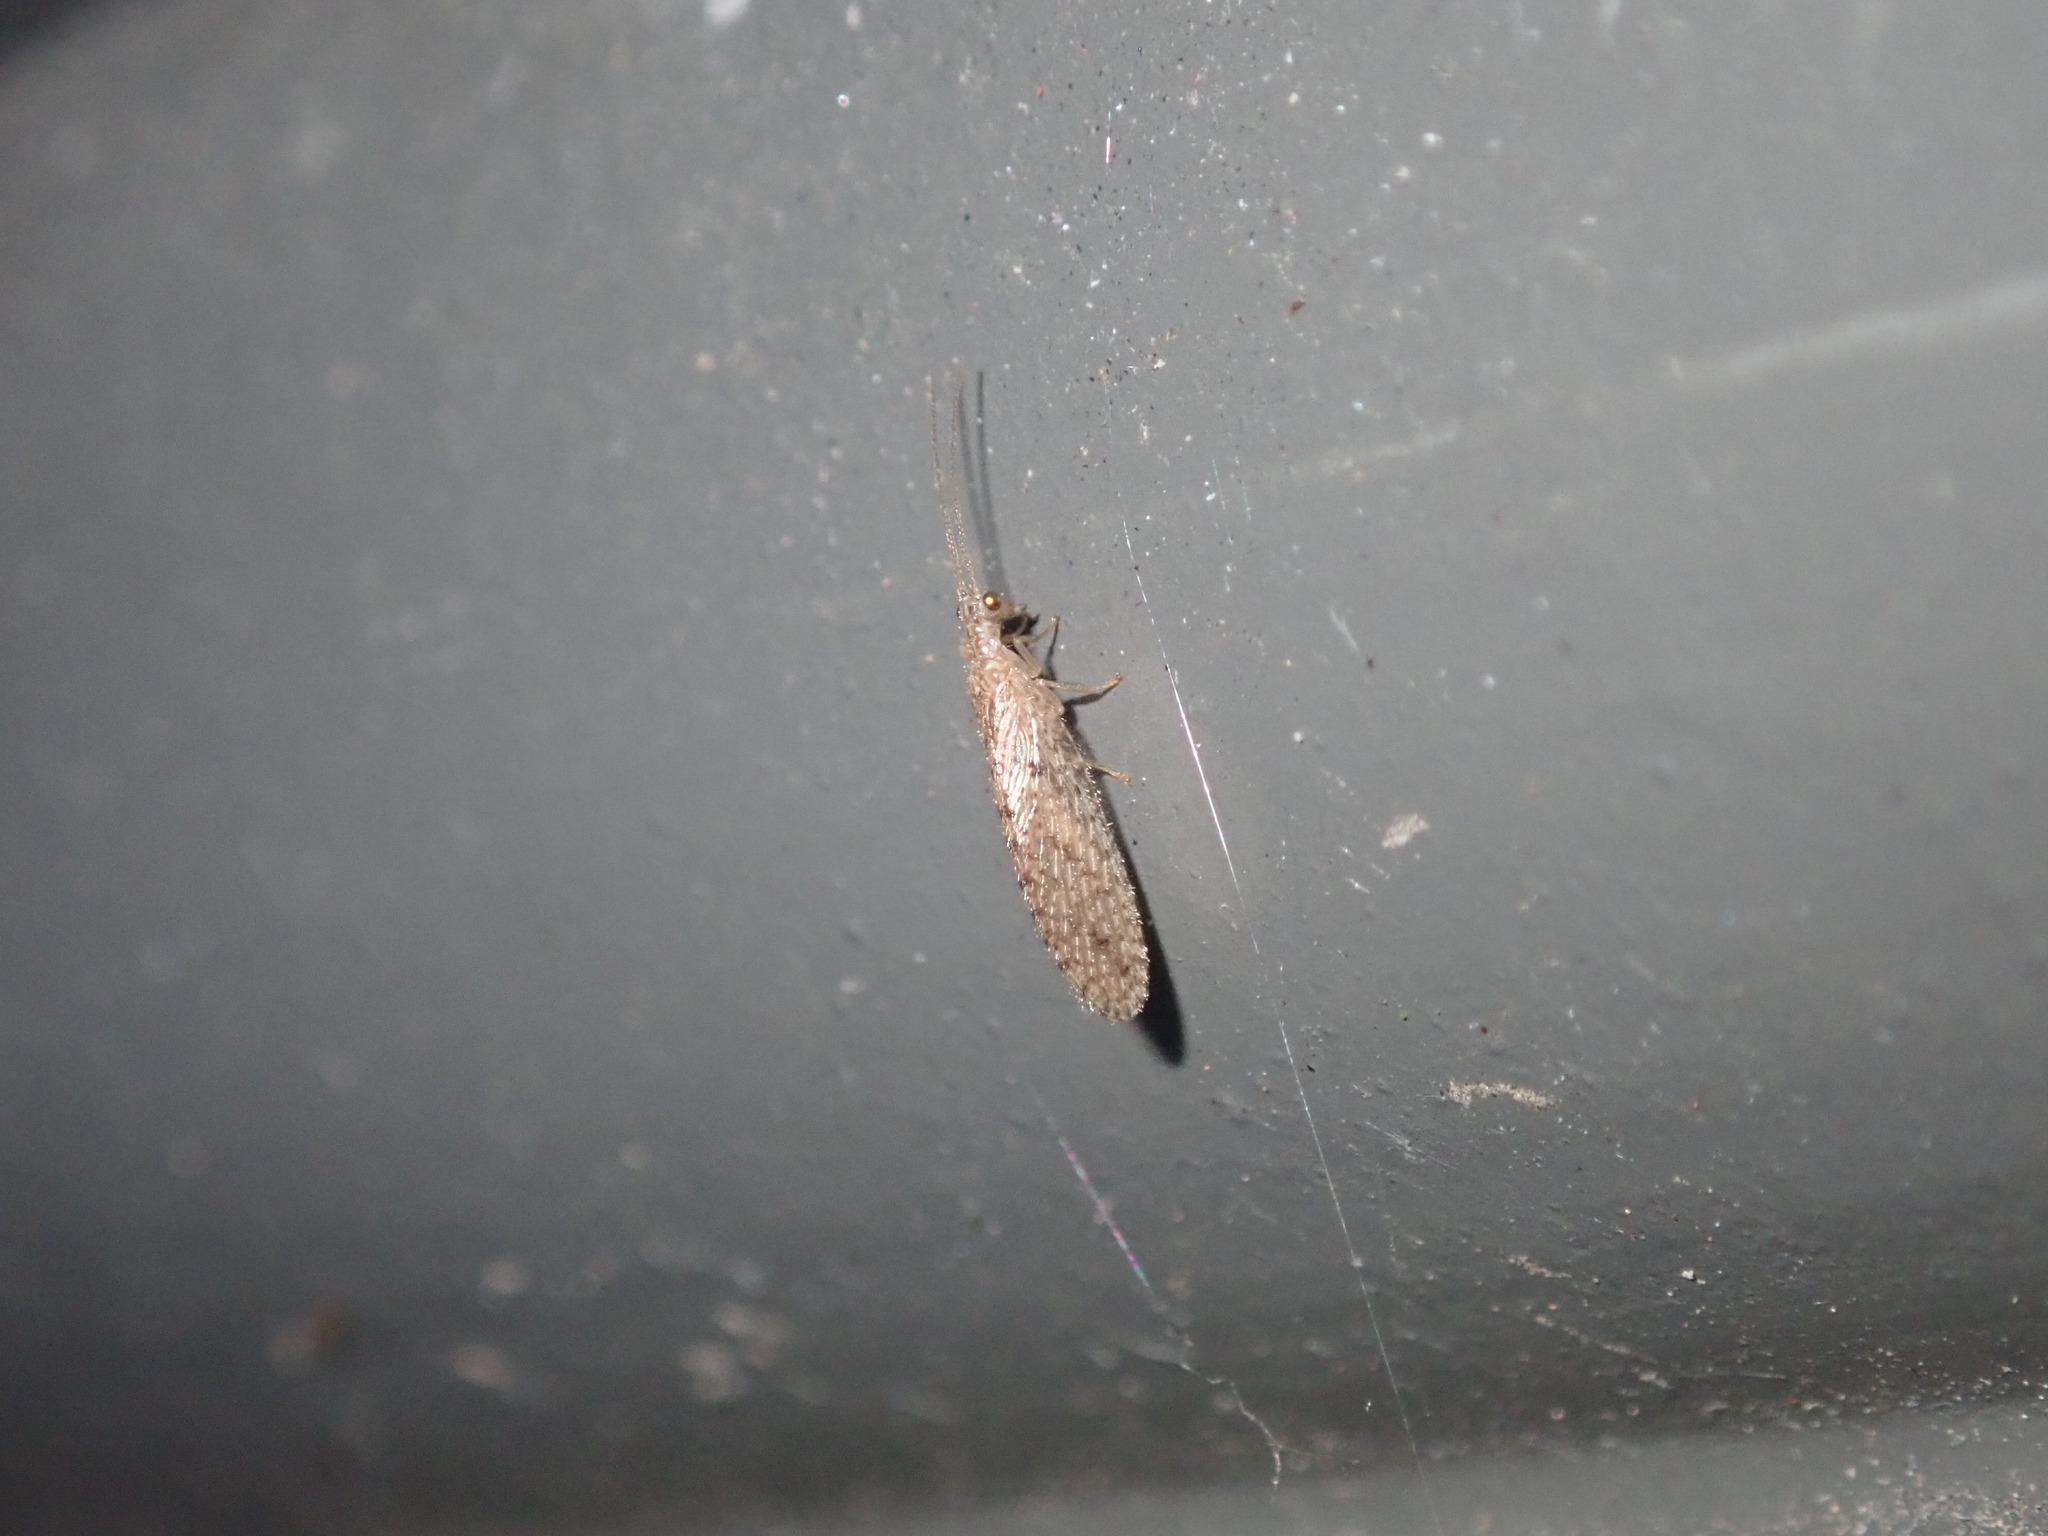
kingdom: Animalia
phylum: Arthropoda
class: Insecta
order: Neuroptera
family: Hemerobiidae
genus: Micromus
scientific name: Micromus tasmaniae
